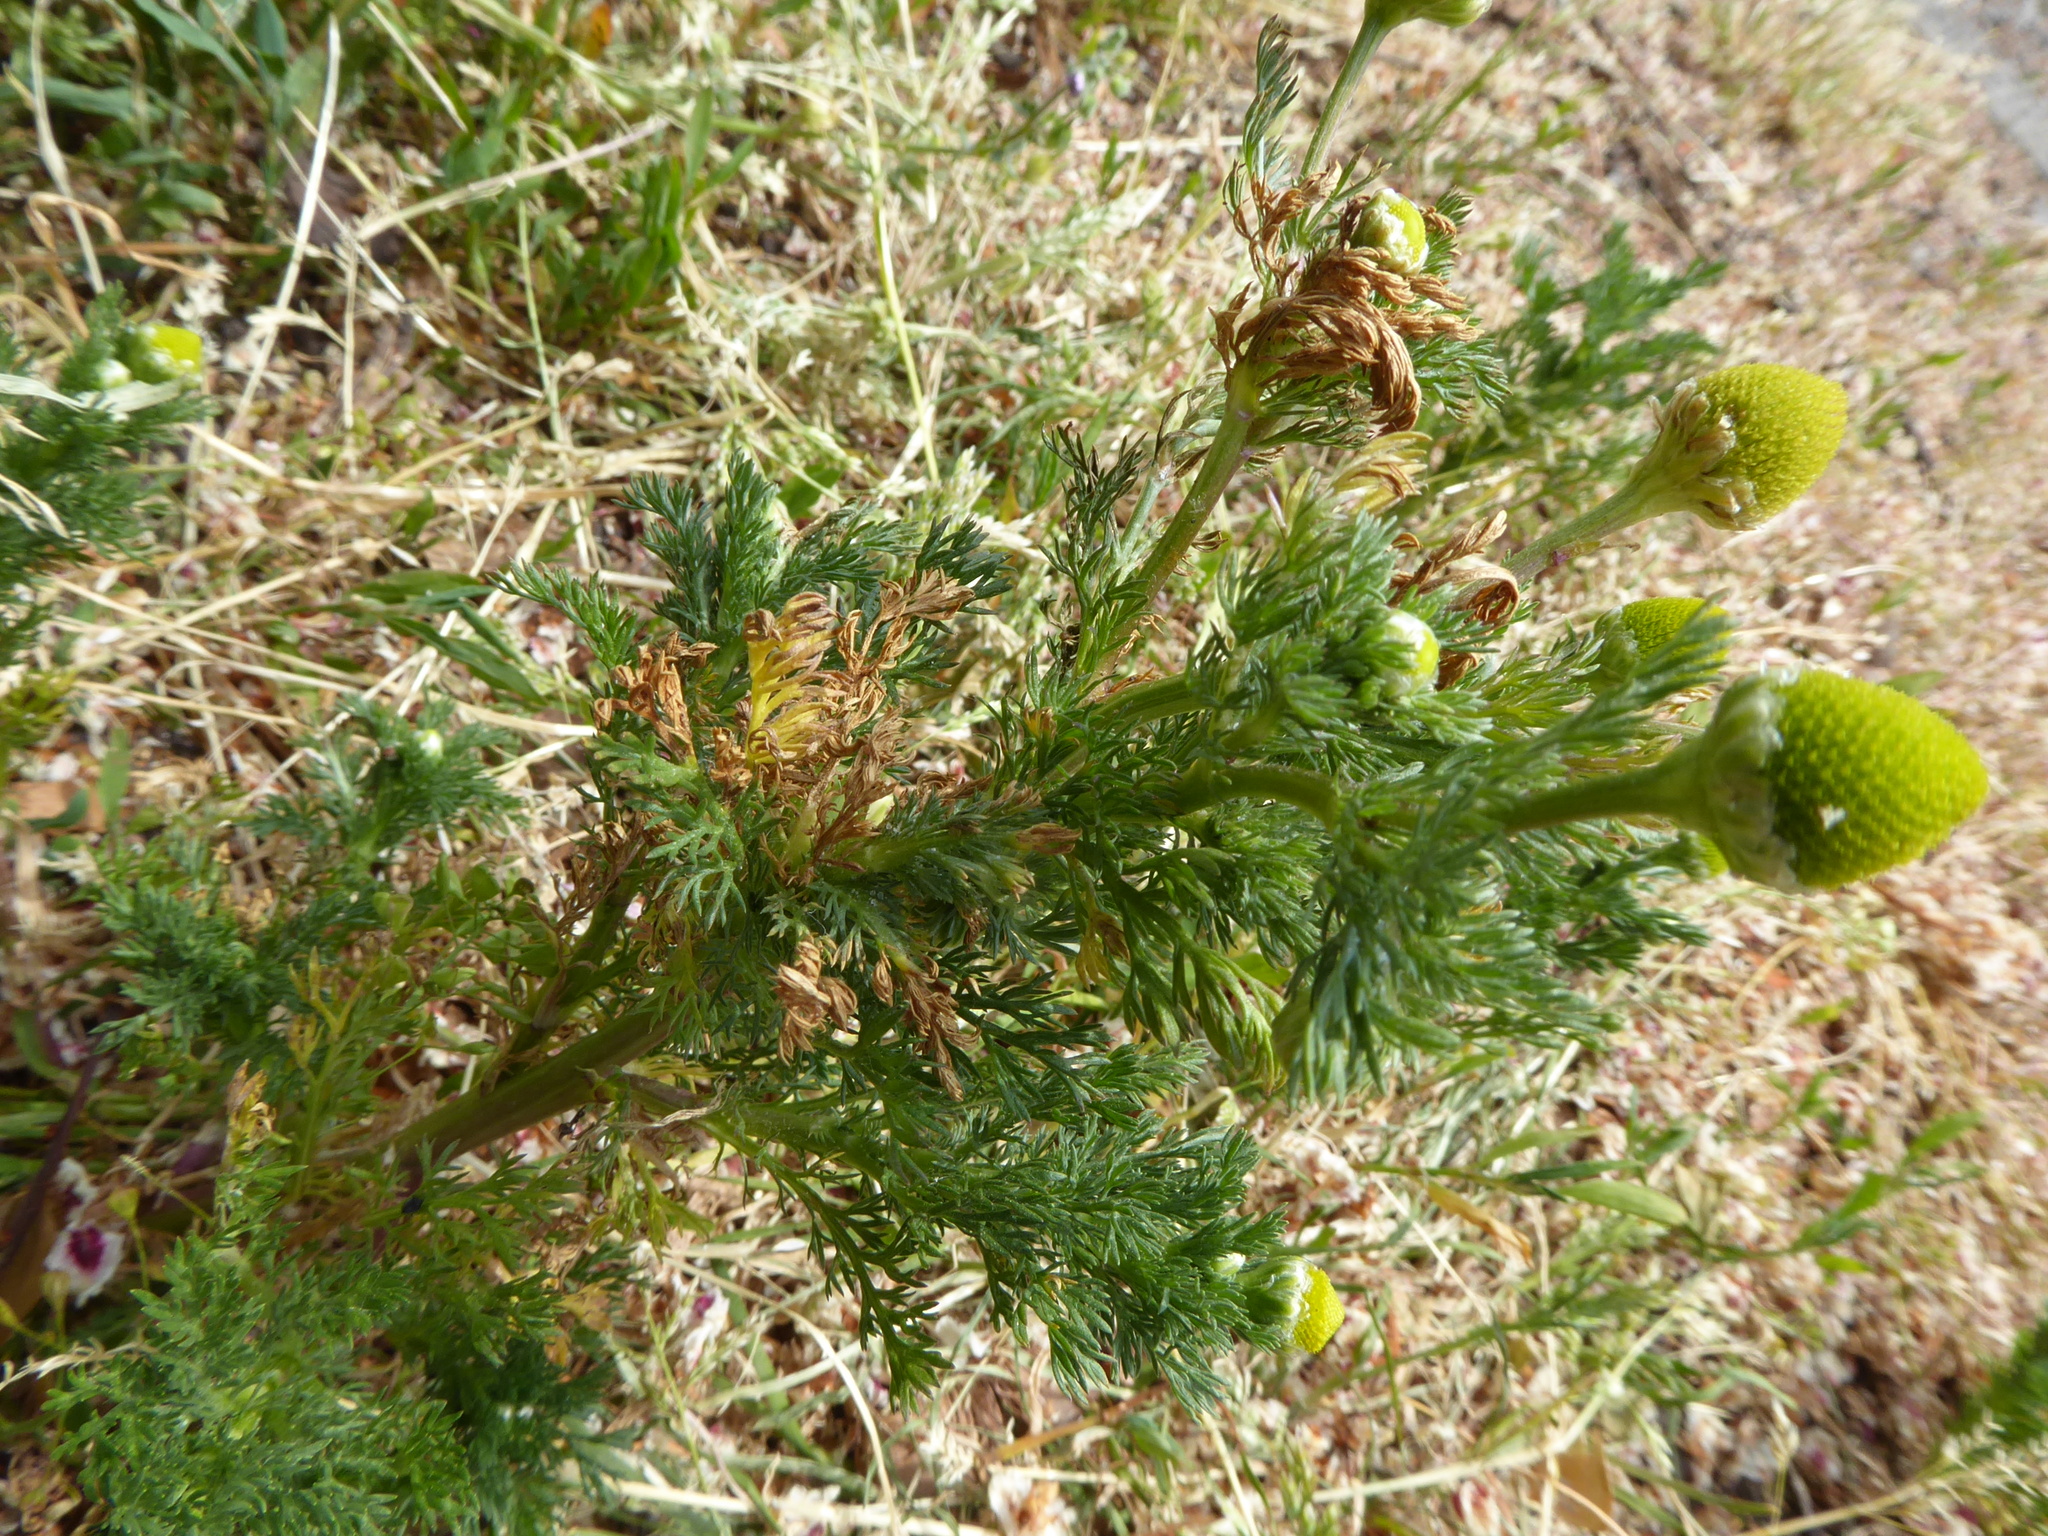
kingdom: Plantae
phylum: Tracheophyta
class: Magnoliopsida
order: Asterales
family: Asteraceae
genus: Matricaria
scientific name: Matricaria discoidea
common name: Disc mayweed
